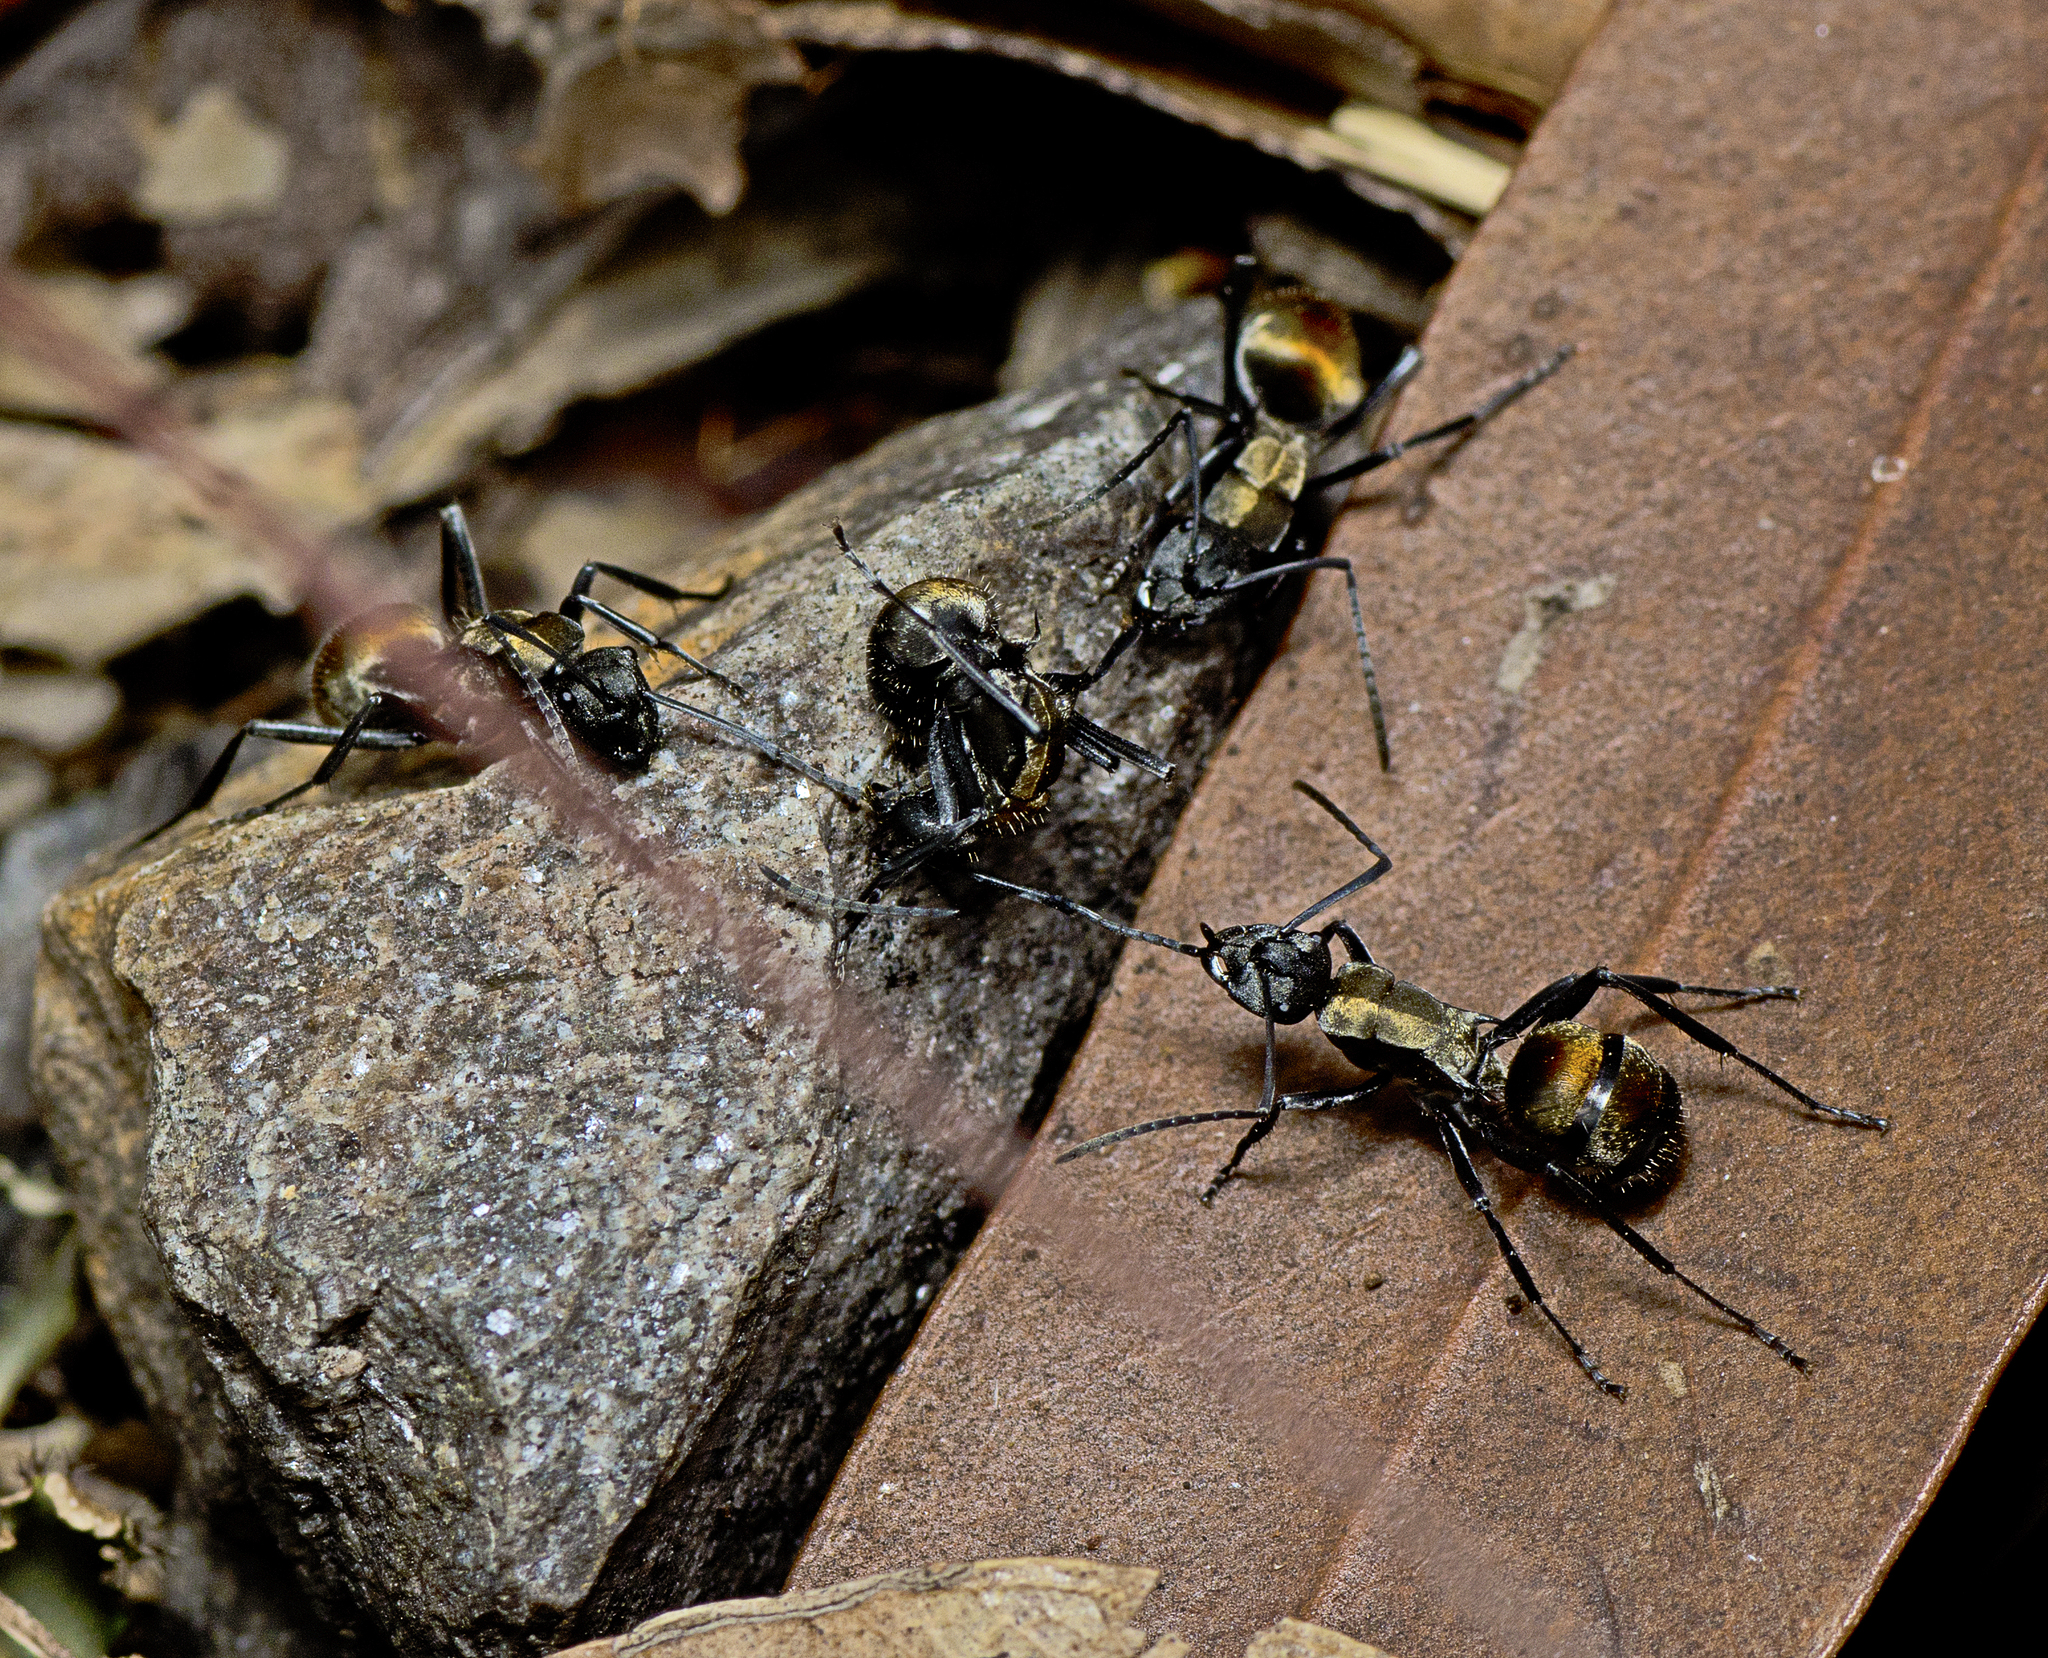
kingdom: Animalia
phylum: Arthropoda
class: Insecta
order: Hymenoptera
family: Formicidae
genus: Polyrhachis
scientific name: Polyrhachis ammon
